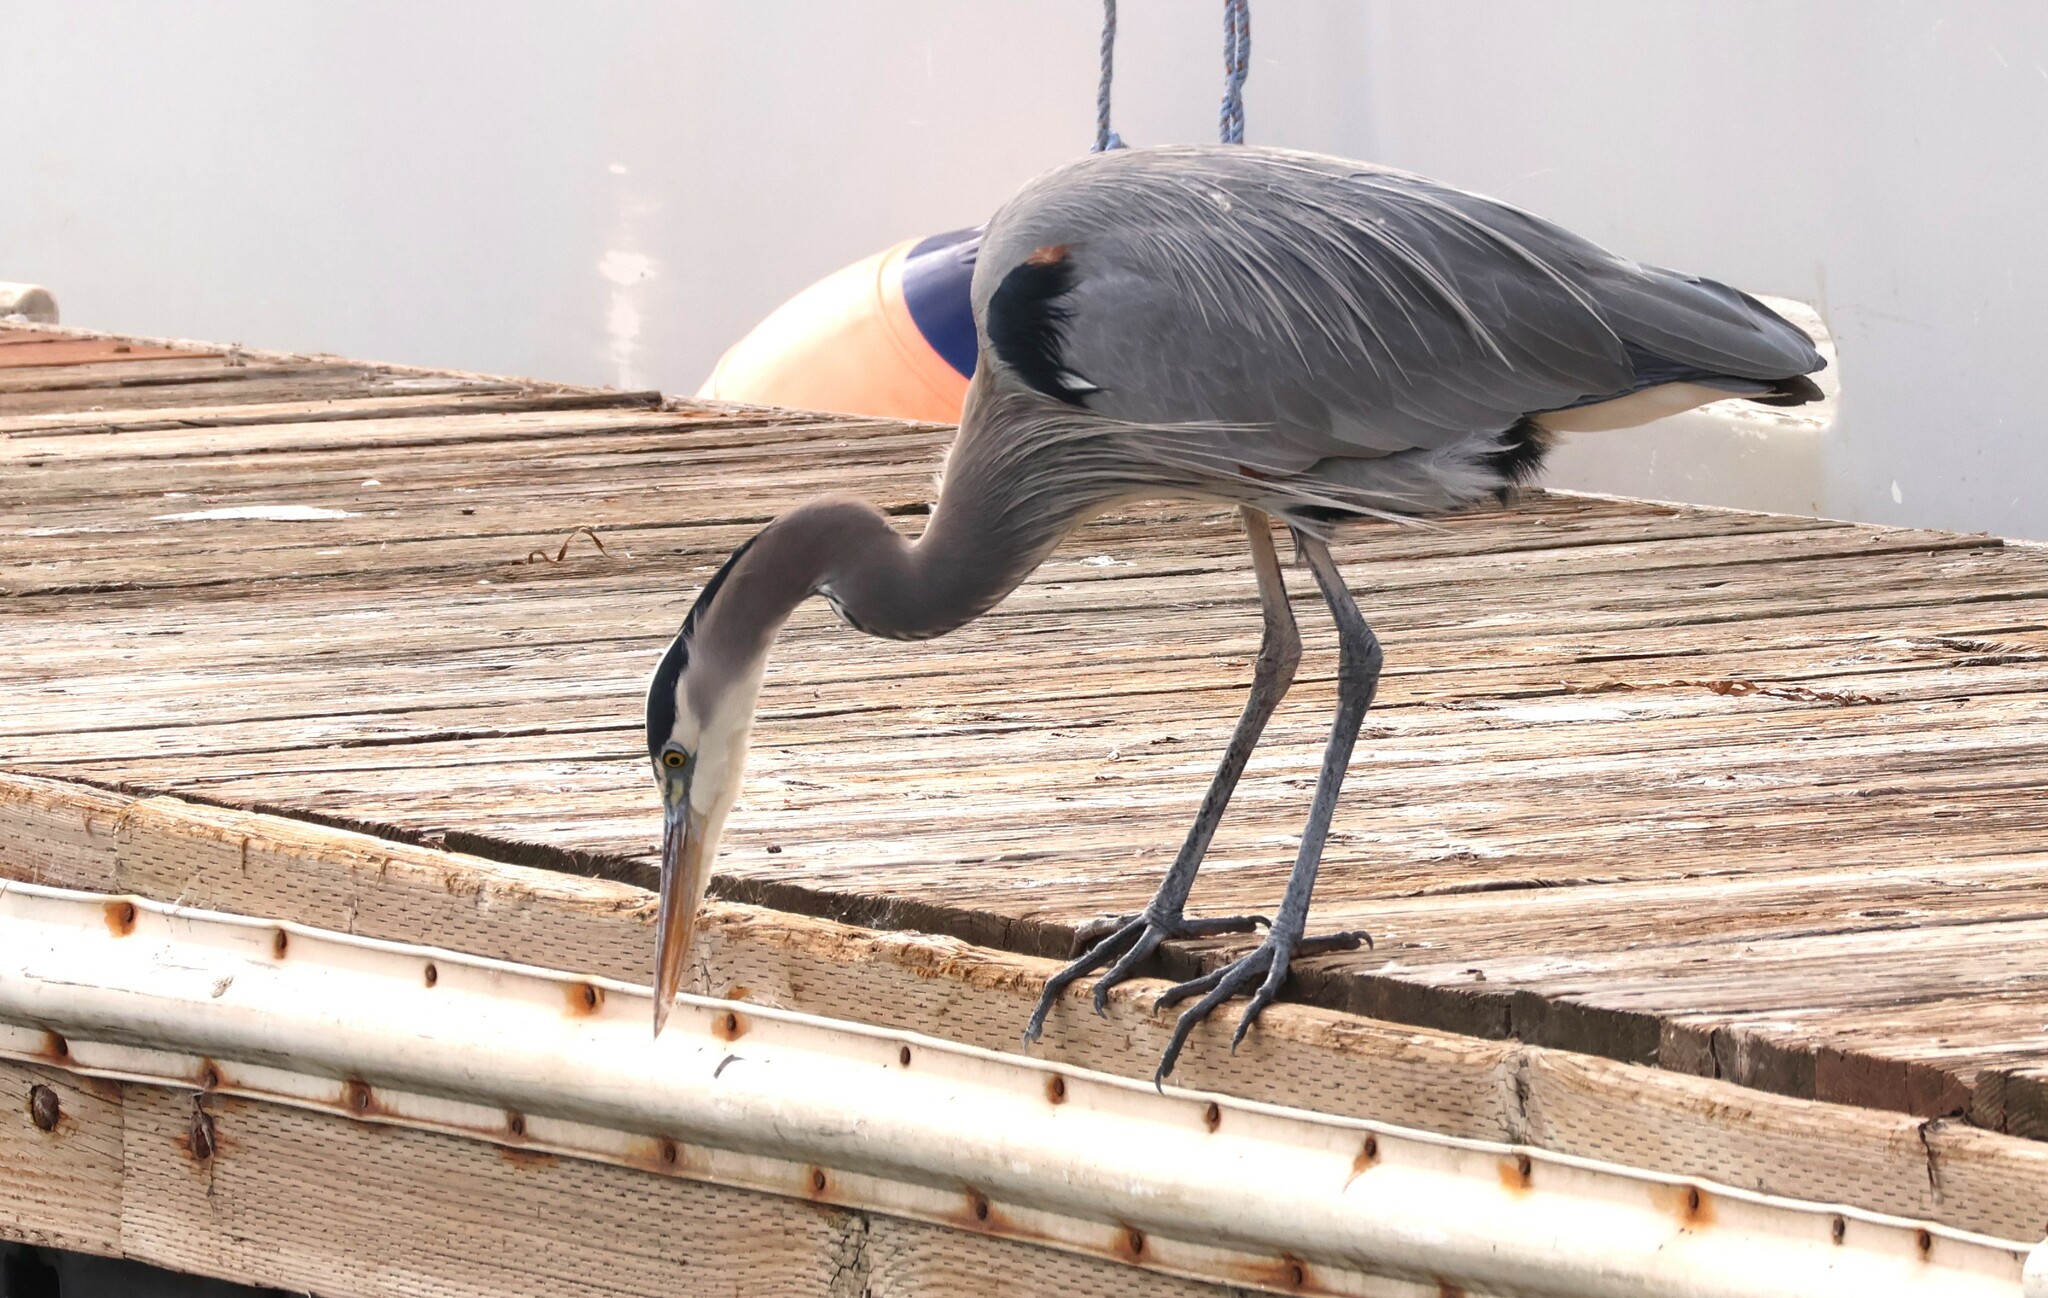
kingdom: Animalia
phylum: Chordata
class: Aves
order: Pelecaniformes
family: Ardeidae
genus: Ardea
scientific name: Ardea herodias
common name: Great blue heron
